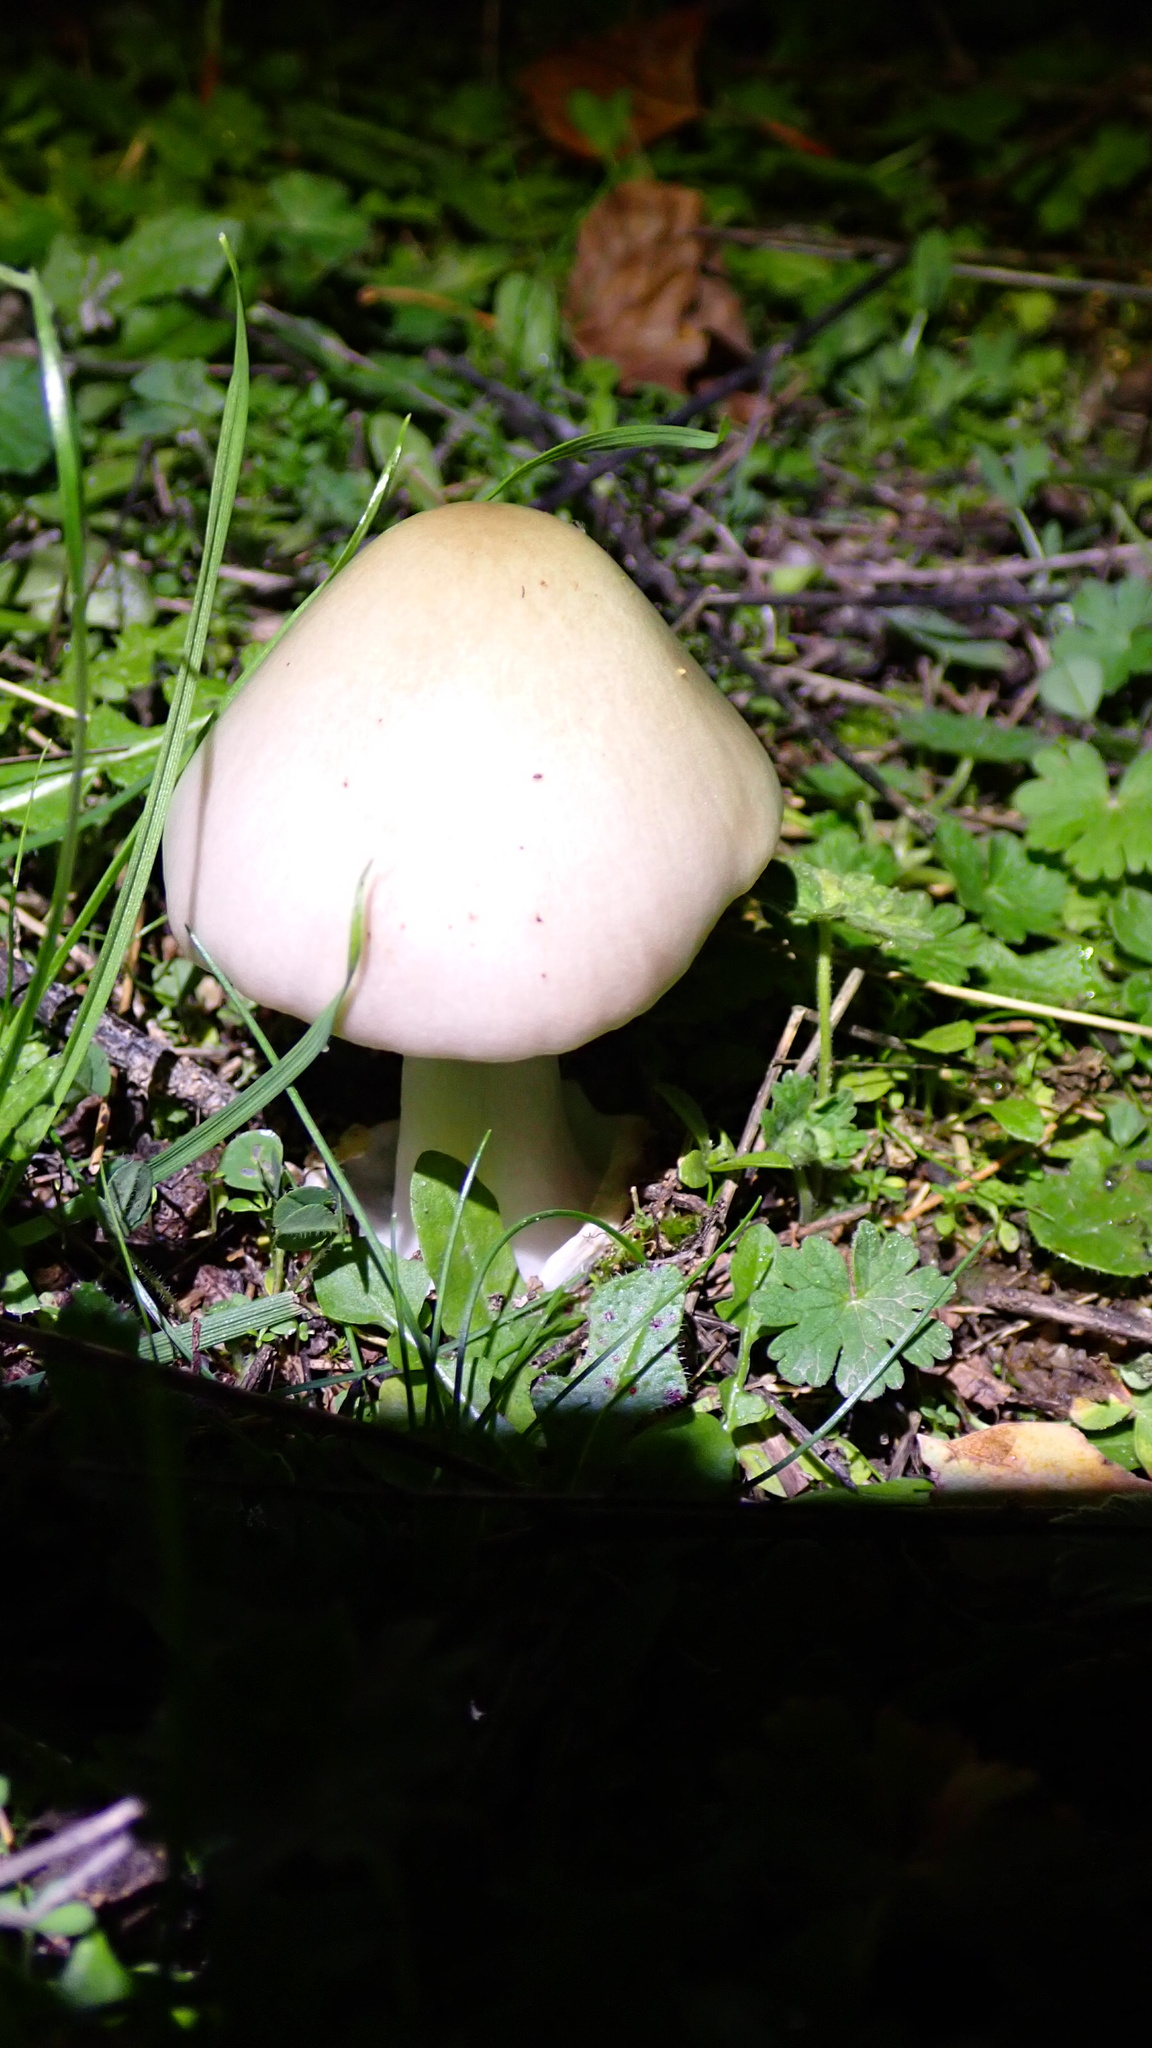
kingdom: Fungi
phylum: Basidiomycota
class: Agaricomycetes
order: Agaricales
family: Pluteaceae
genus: Volvopluteus
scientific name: Volvopluteus gloiocephalus
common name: Stubble rosegill
